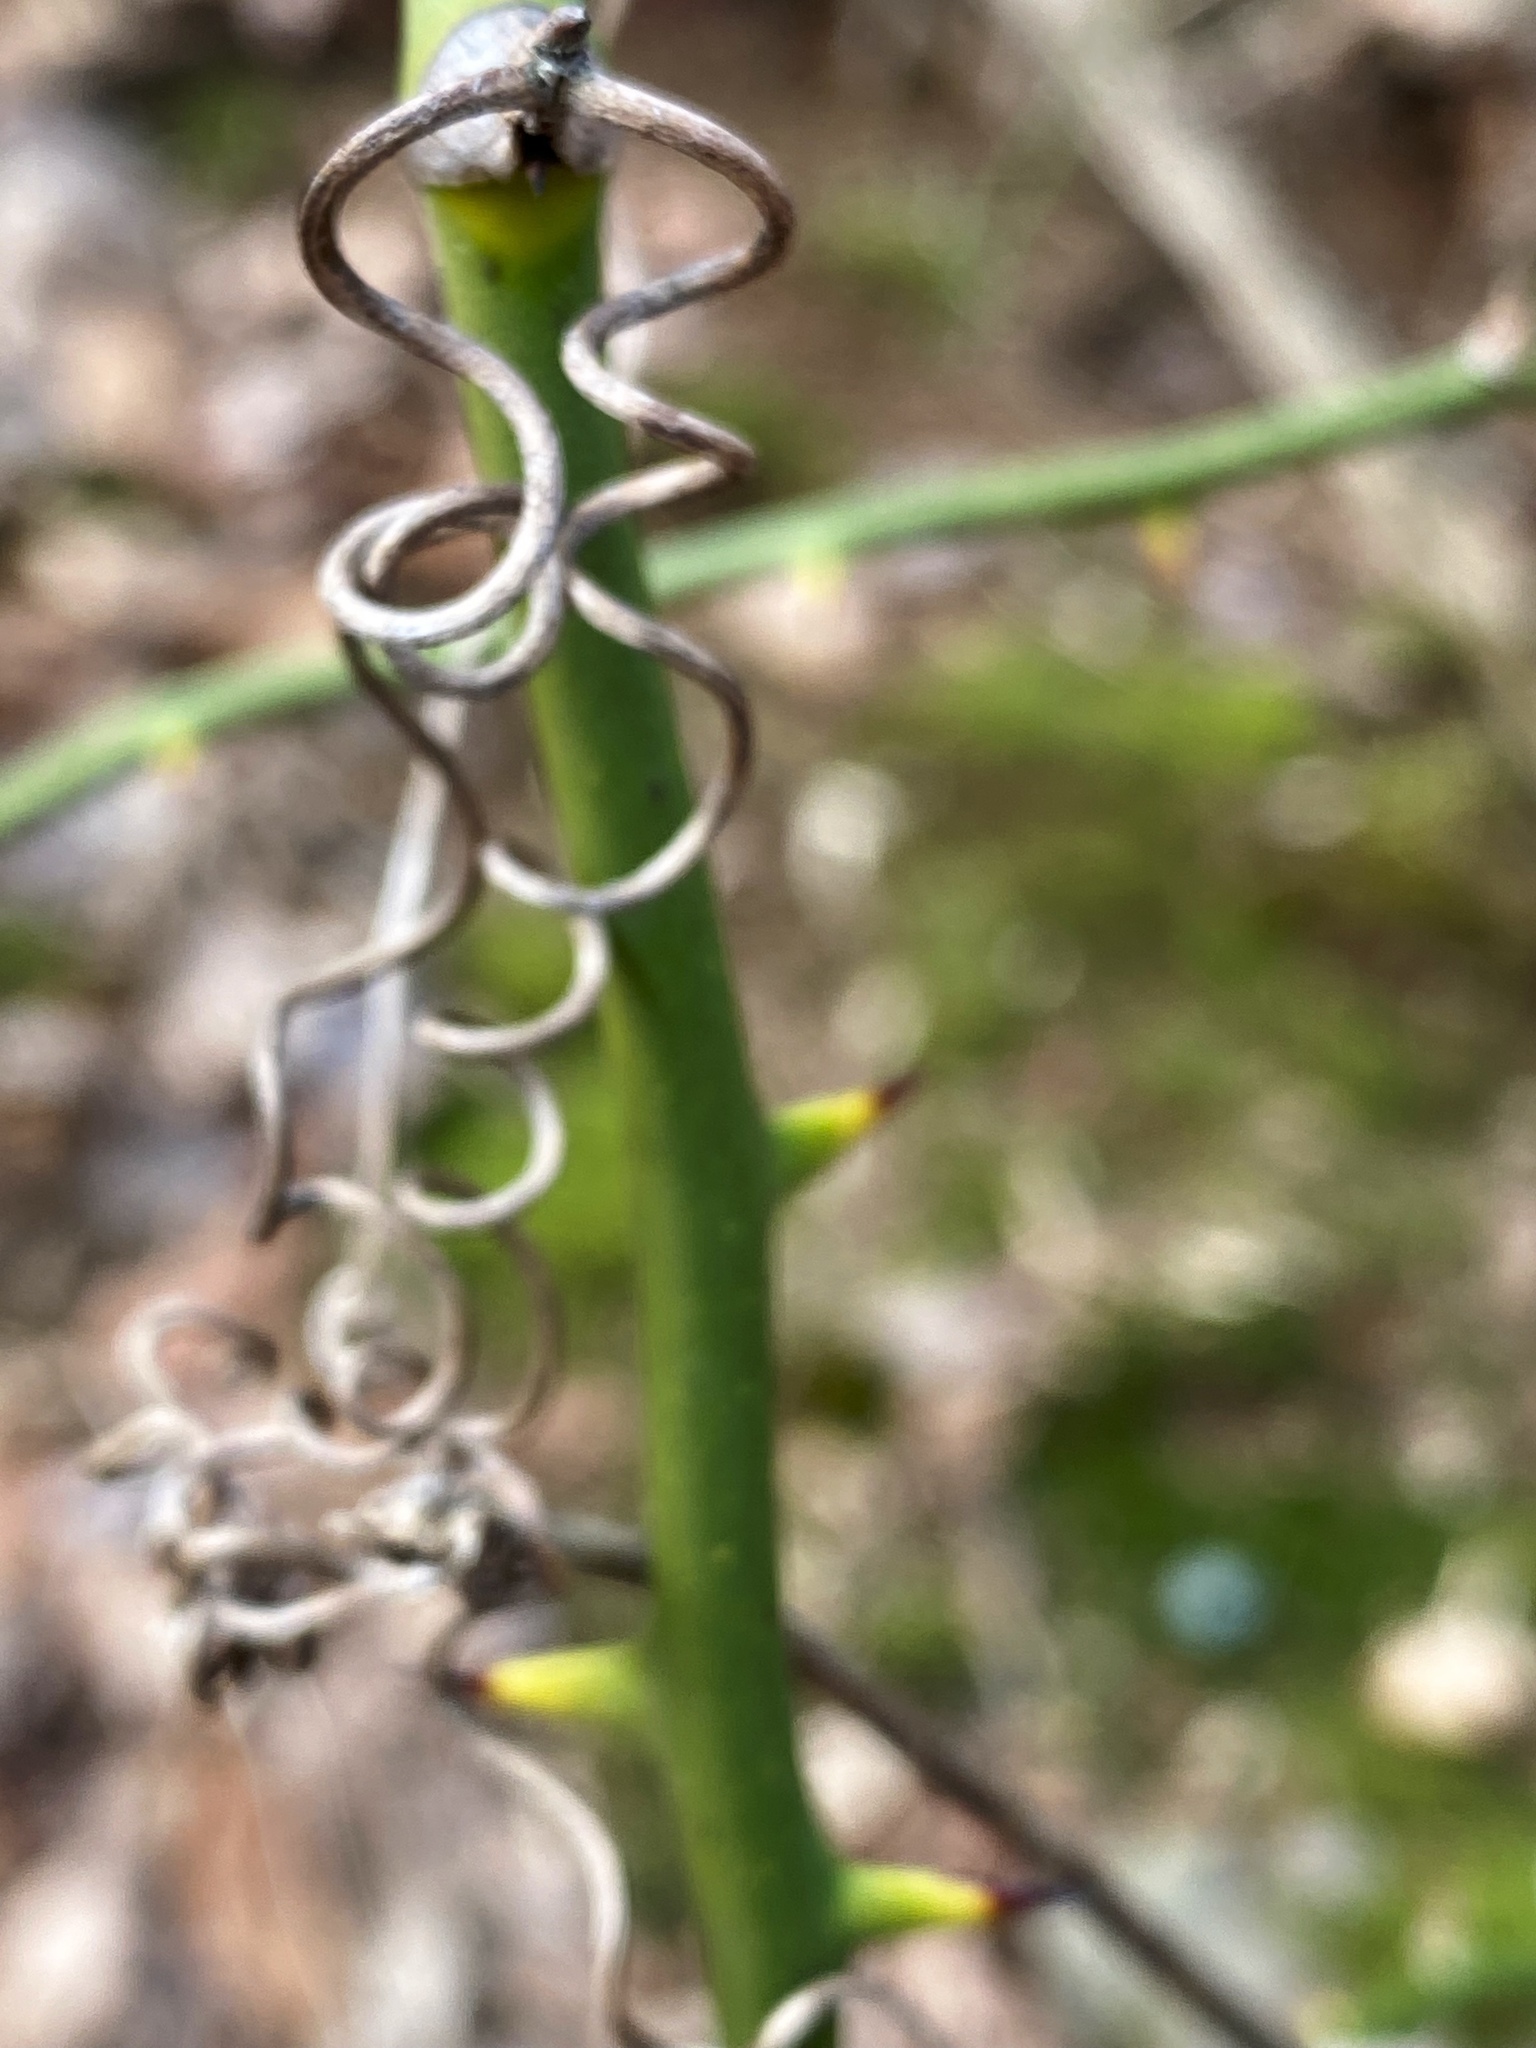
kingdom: Plantae
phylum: Tracheophyta
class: Liliopsida
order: Liliales
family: Smilacaceae
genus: Smilax
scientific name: Smilax rotundifolia
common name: Bullbriar
